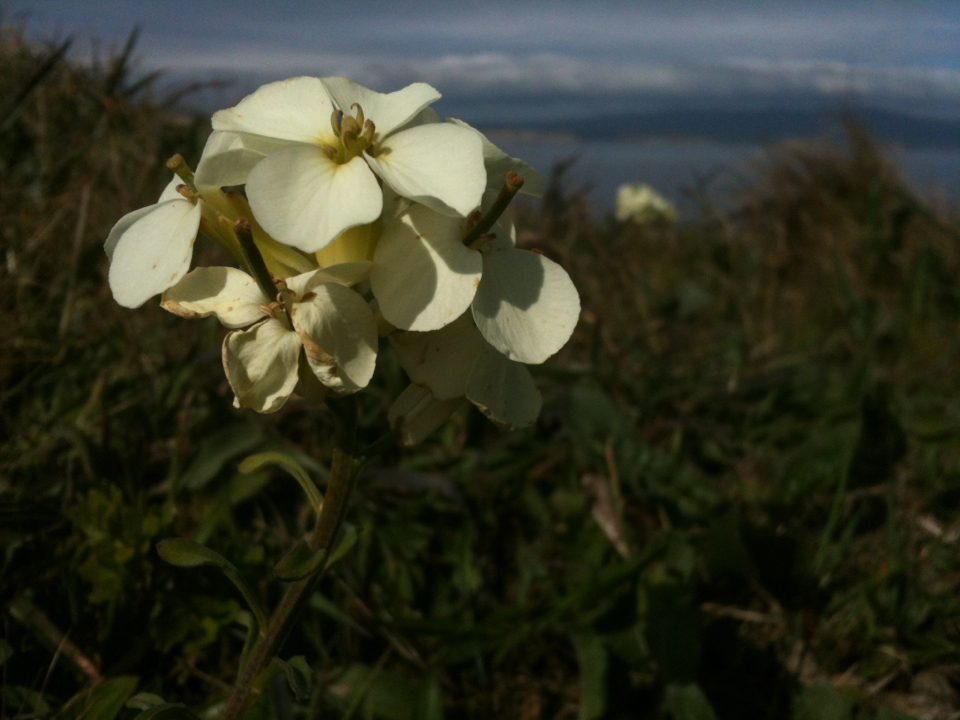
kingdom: Plantae
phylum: Tracheophyta
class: Magnoliopsida
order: Brassicales
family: Brassicaceae
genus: Erysimum
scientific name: Erysimum concinnum
